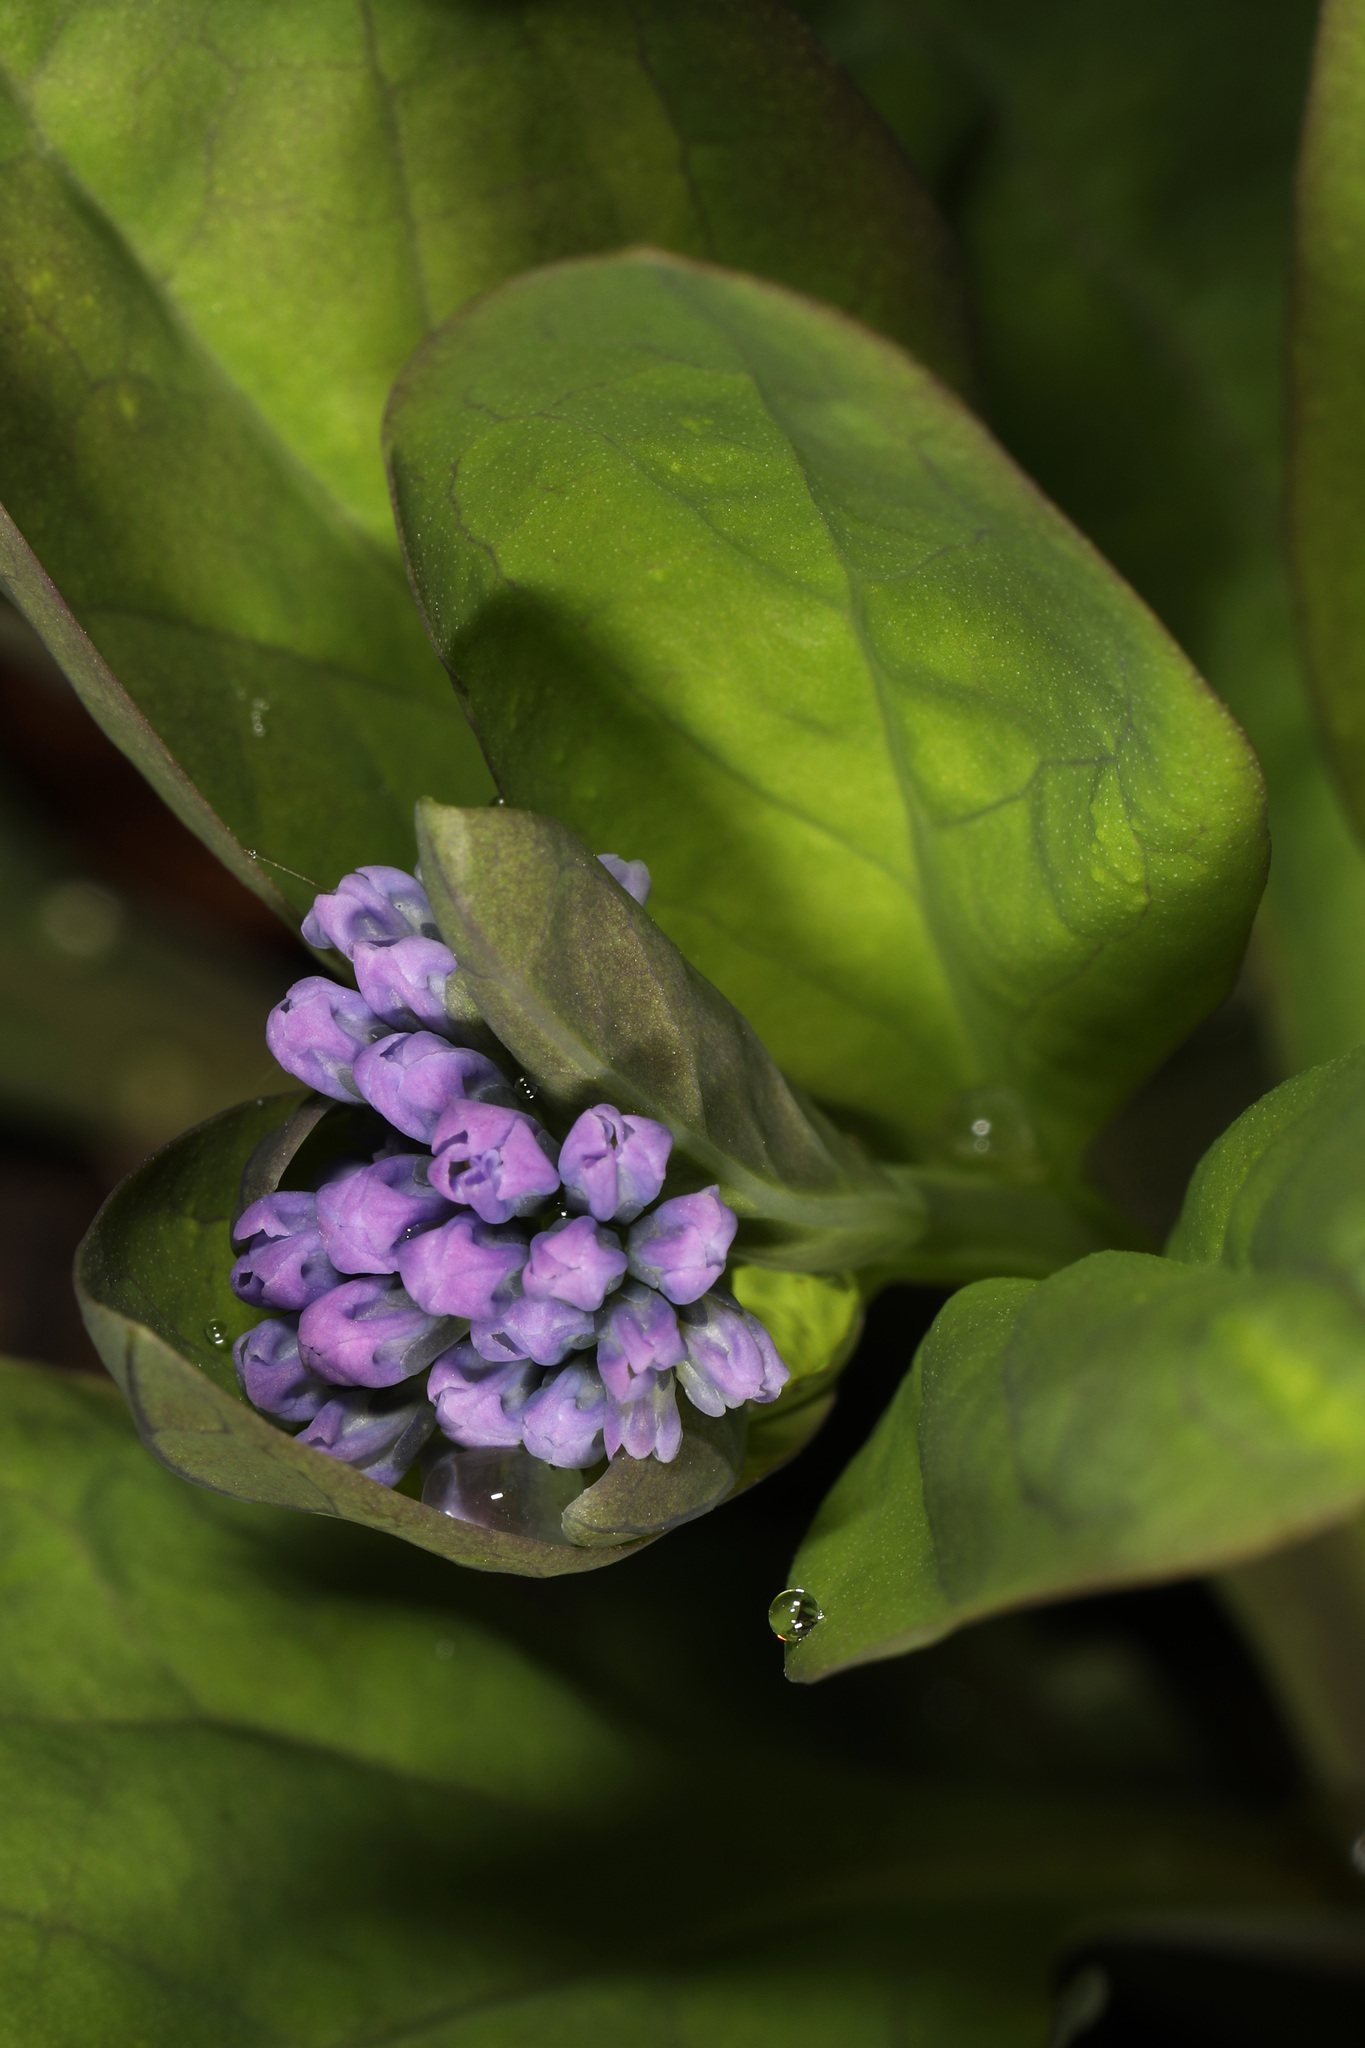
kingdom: Plantae
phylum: Tracheophyta
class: Magnoliopsida
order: Boraginales
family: Boraginaceae
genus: Mertensia
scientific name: Mertensia virginica
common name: Virginia bluebells
